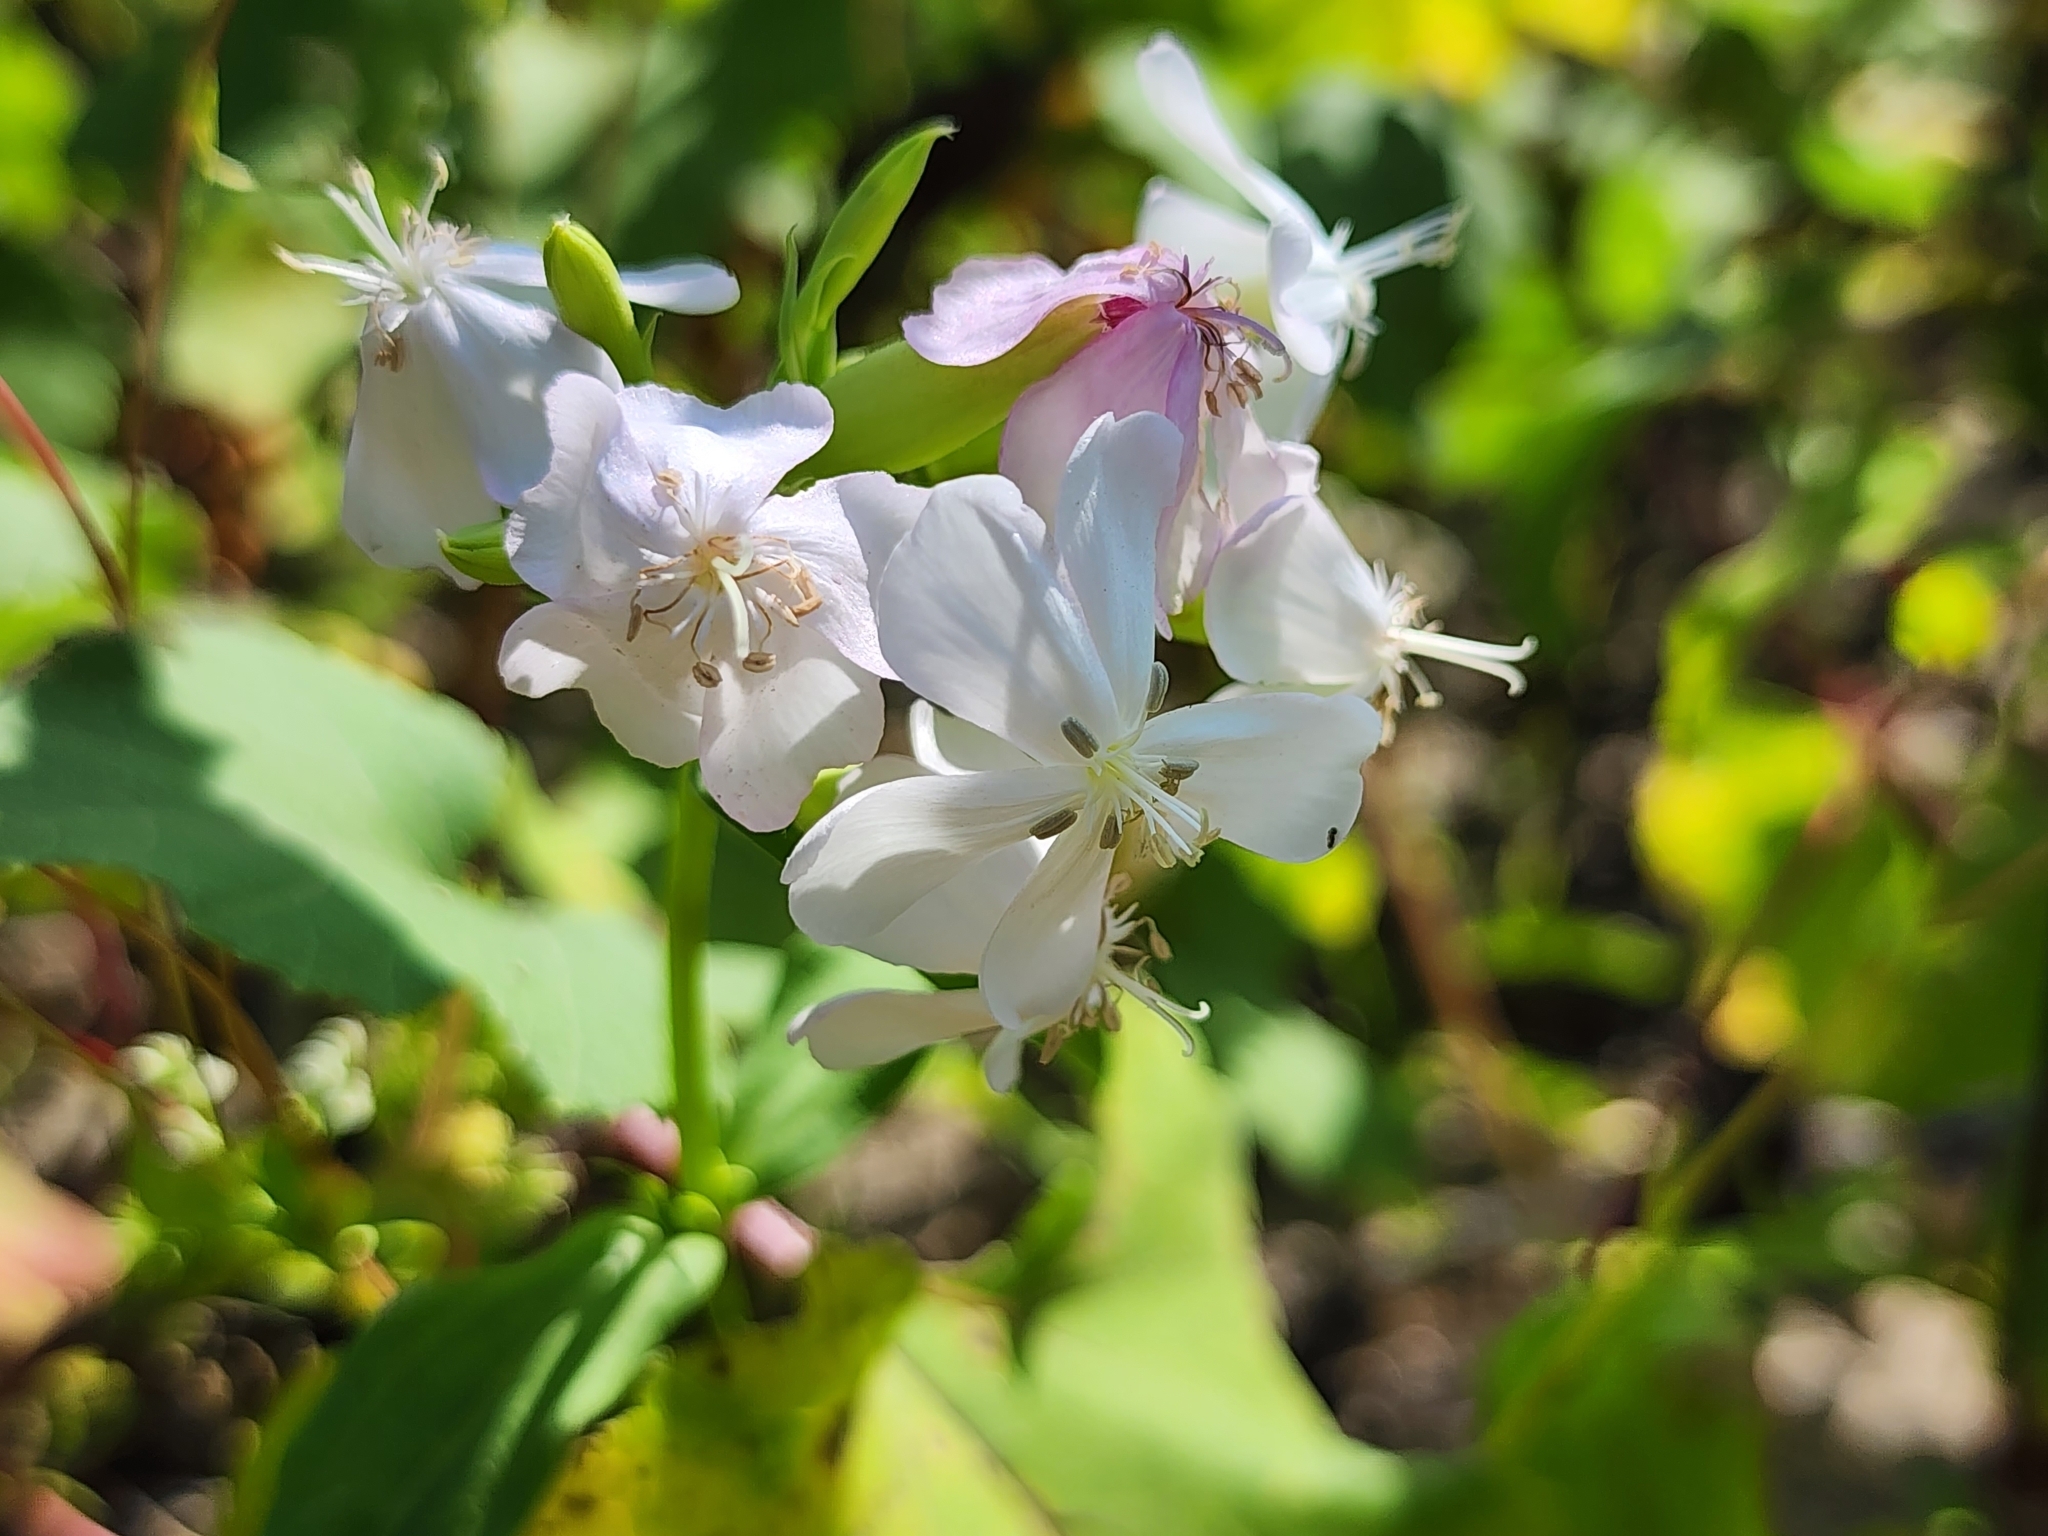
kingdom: Plantae
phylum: Tracheophyta
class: Magnoliopsida
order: Caryophyllales
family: Caryophyllaceae
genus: Saponaria
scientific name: Saponaria officinalis
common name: Soapwort
